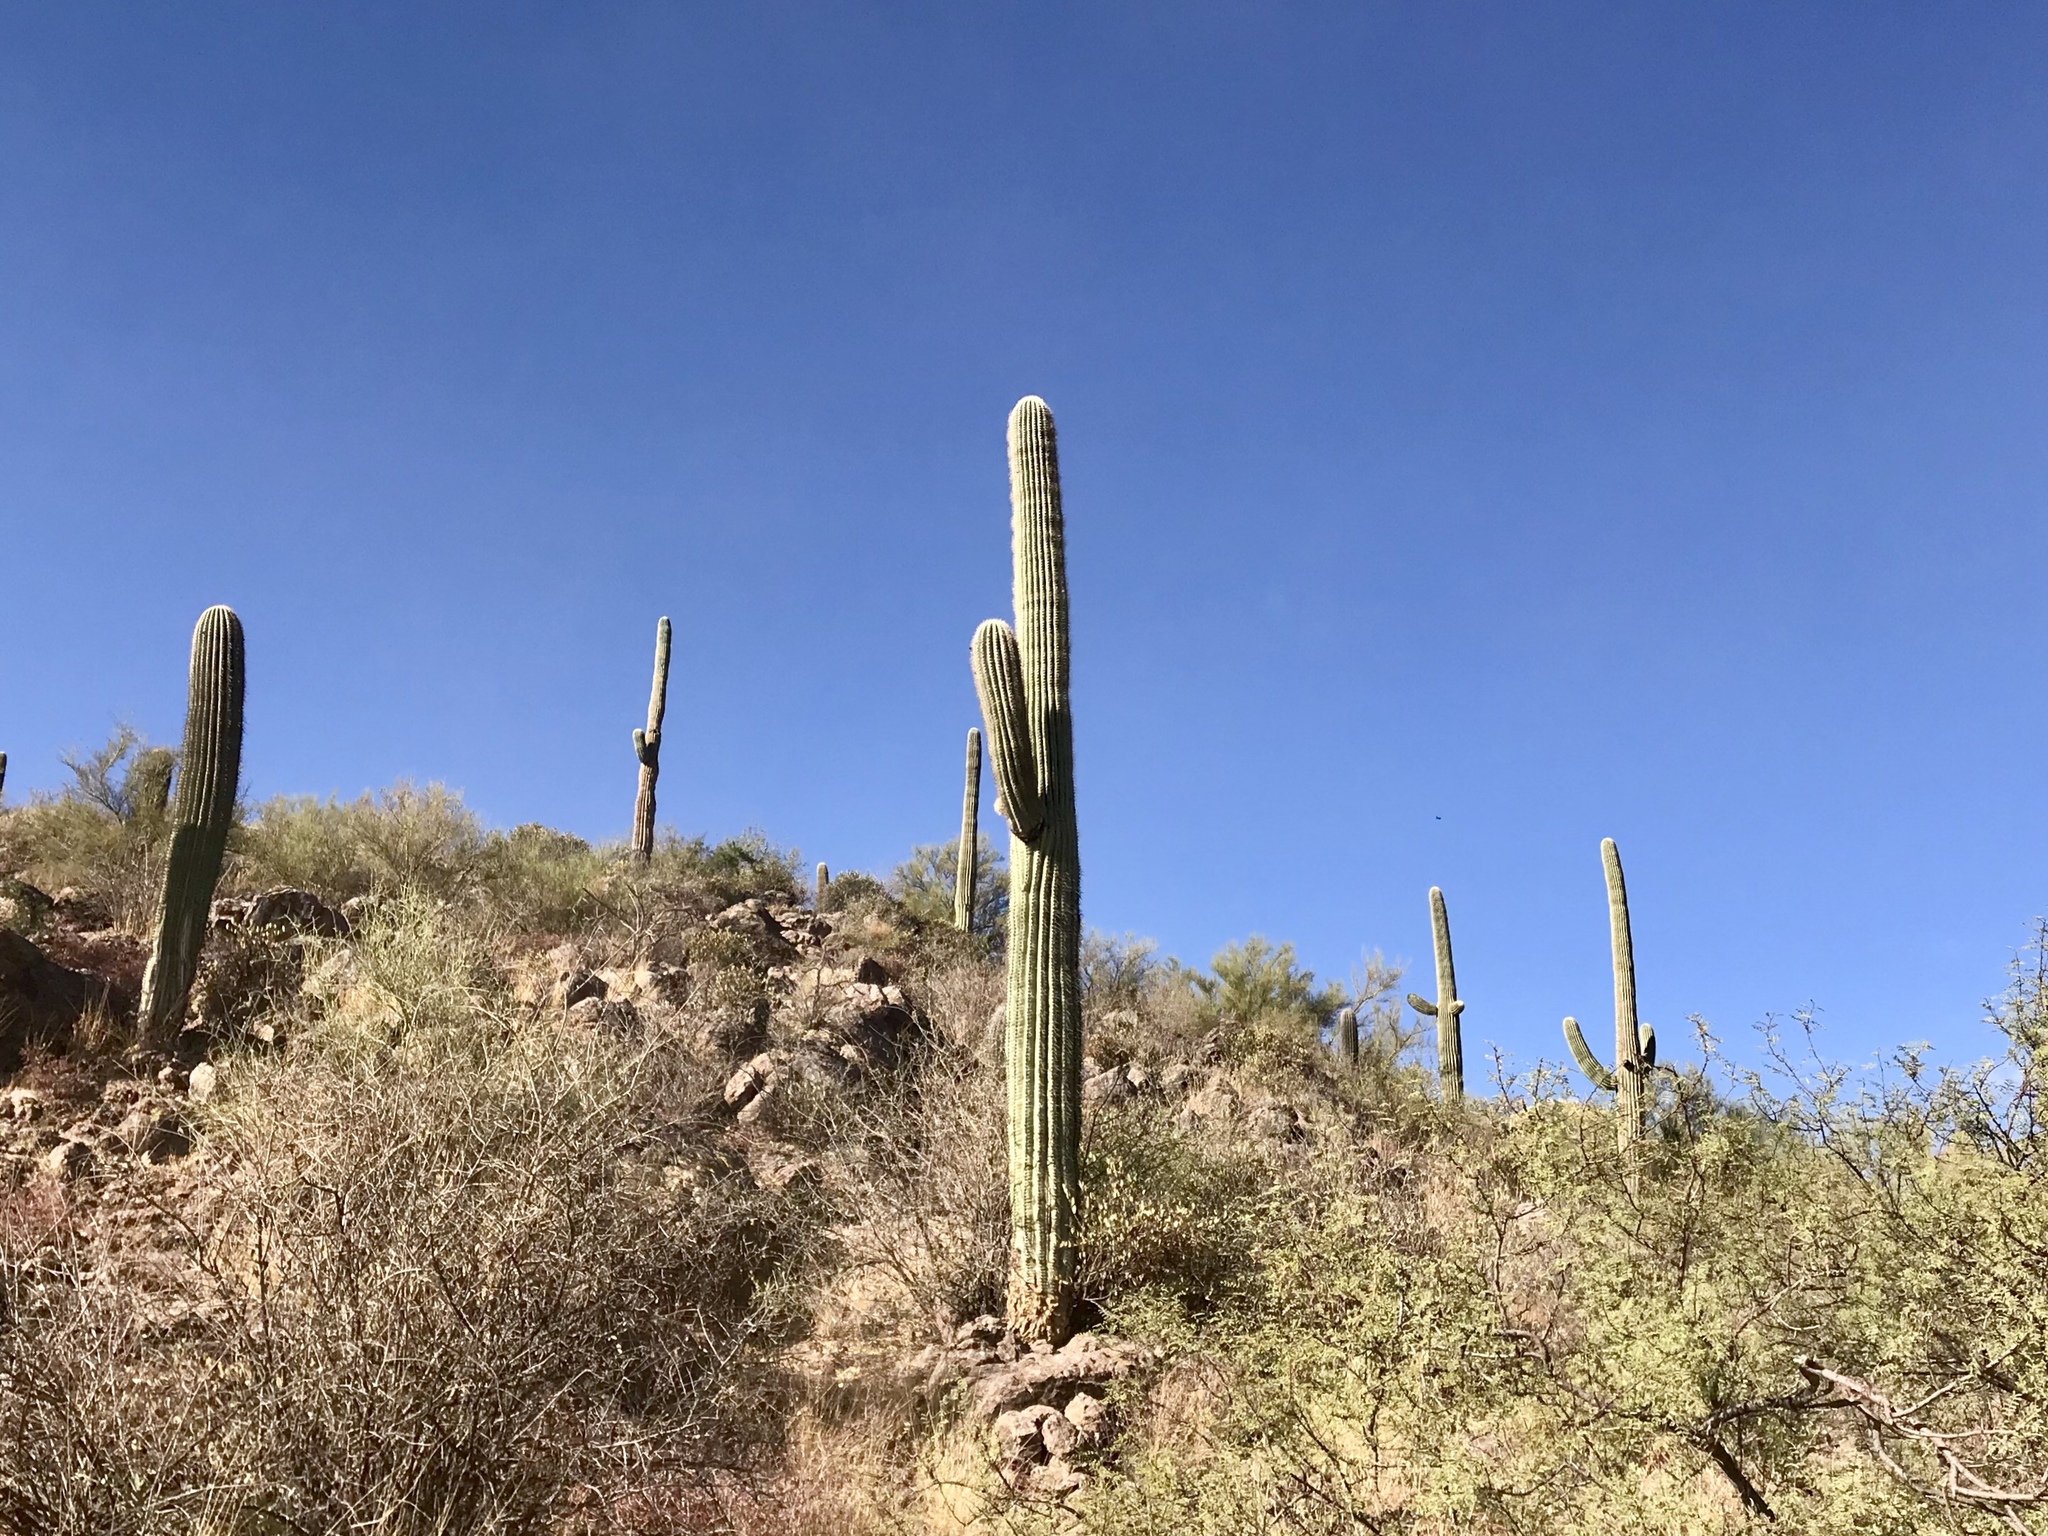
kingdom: Plantae
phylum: Tracheophyta
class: Magnoliopsida
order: Caryophyllales
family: Cactaceae
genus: Carnegiea
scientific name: Carnegiea gigantea
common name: Saguaro
